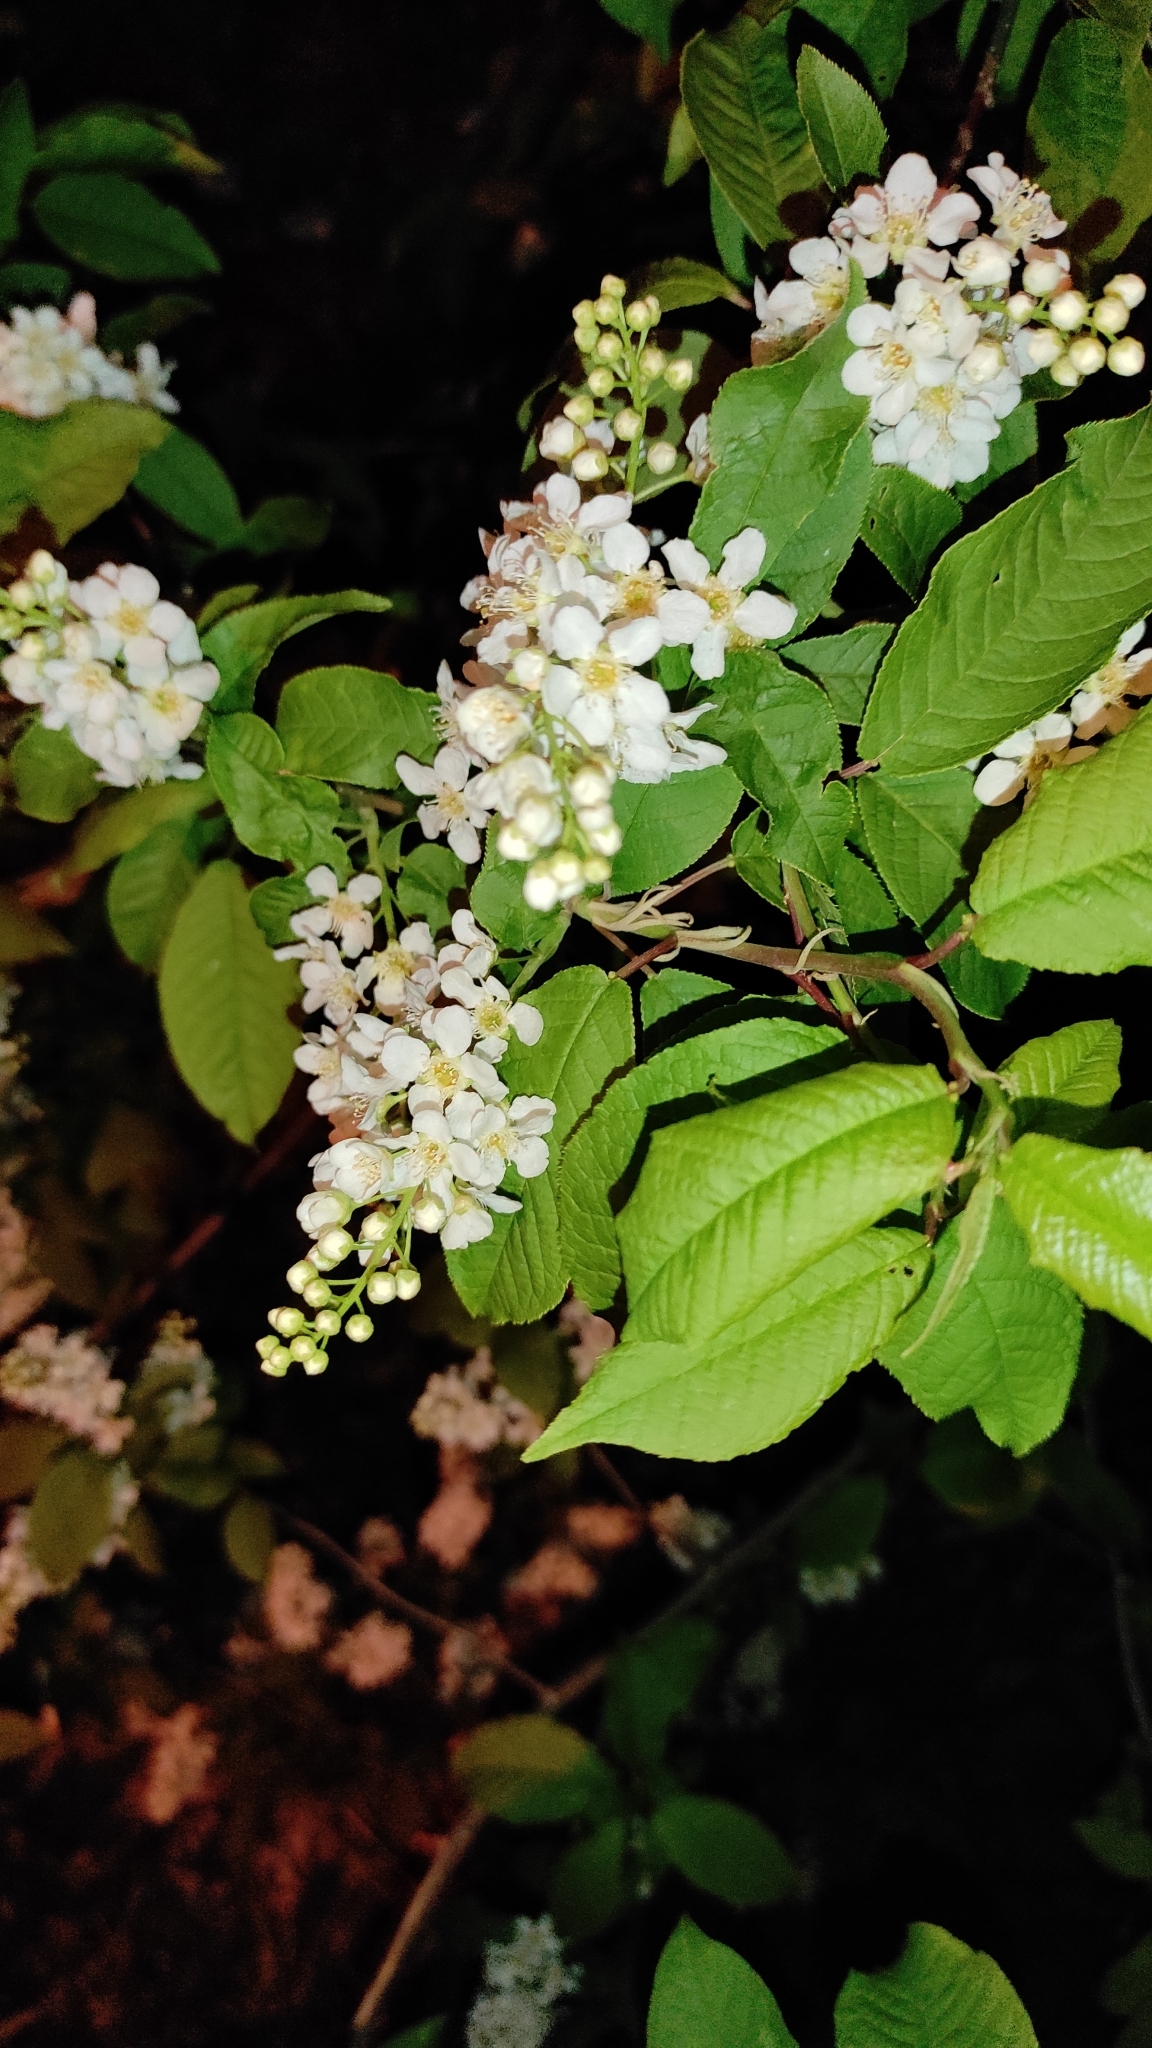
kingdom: Plantae
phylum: Tracheophyta
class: Magnoliopsida
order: Rosales
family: Rosaceae
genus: Prunus
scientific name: Prunus padus
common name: Bird cherry
